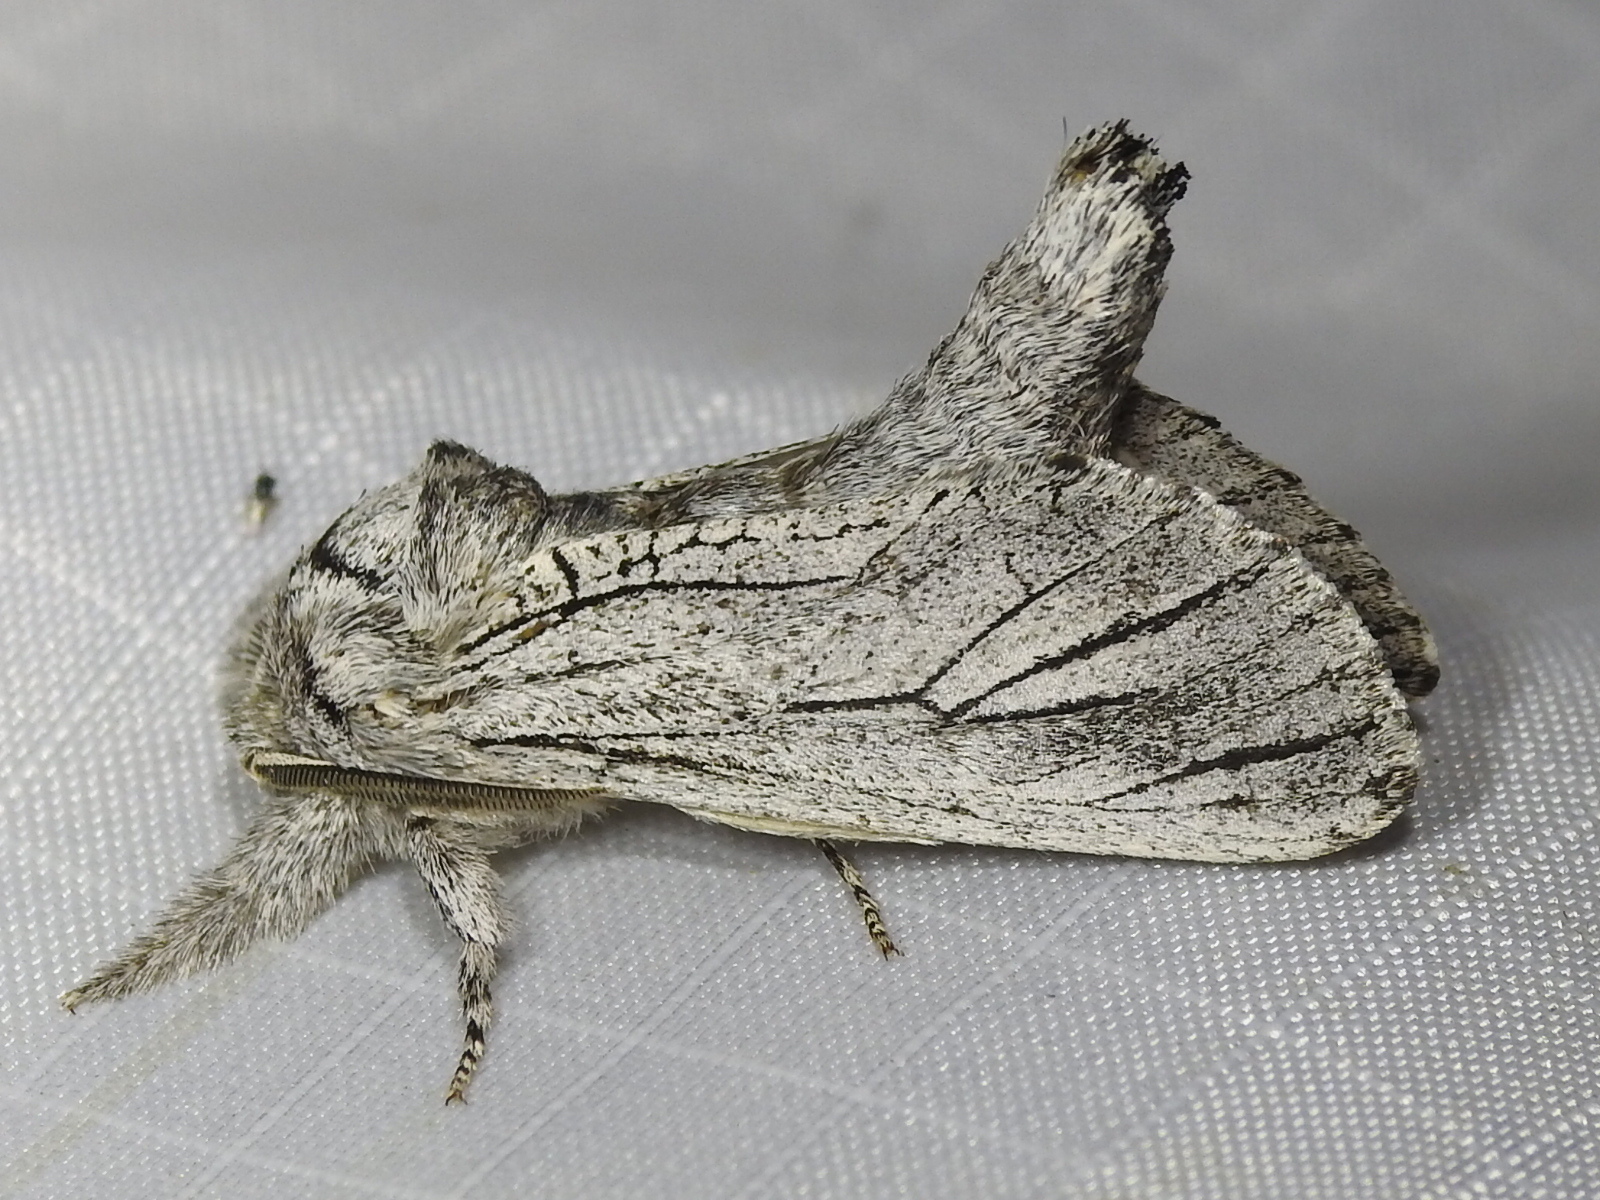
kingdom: Animalia
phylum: Arthropoda
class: Insecta
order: Lepidoptera
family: Cossidae
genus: Inguromorpha
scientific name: Inguromorpha
